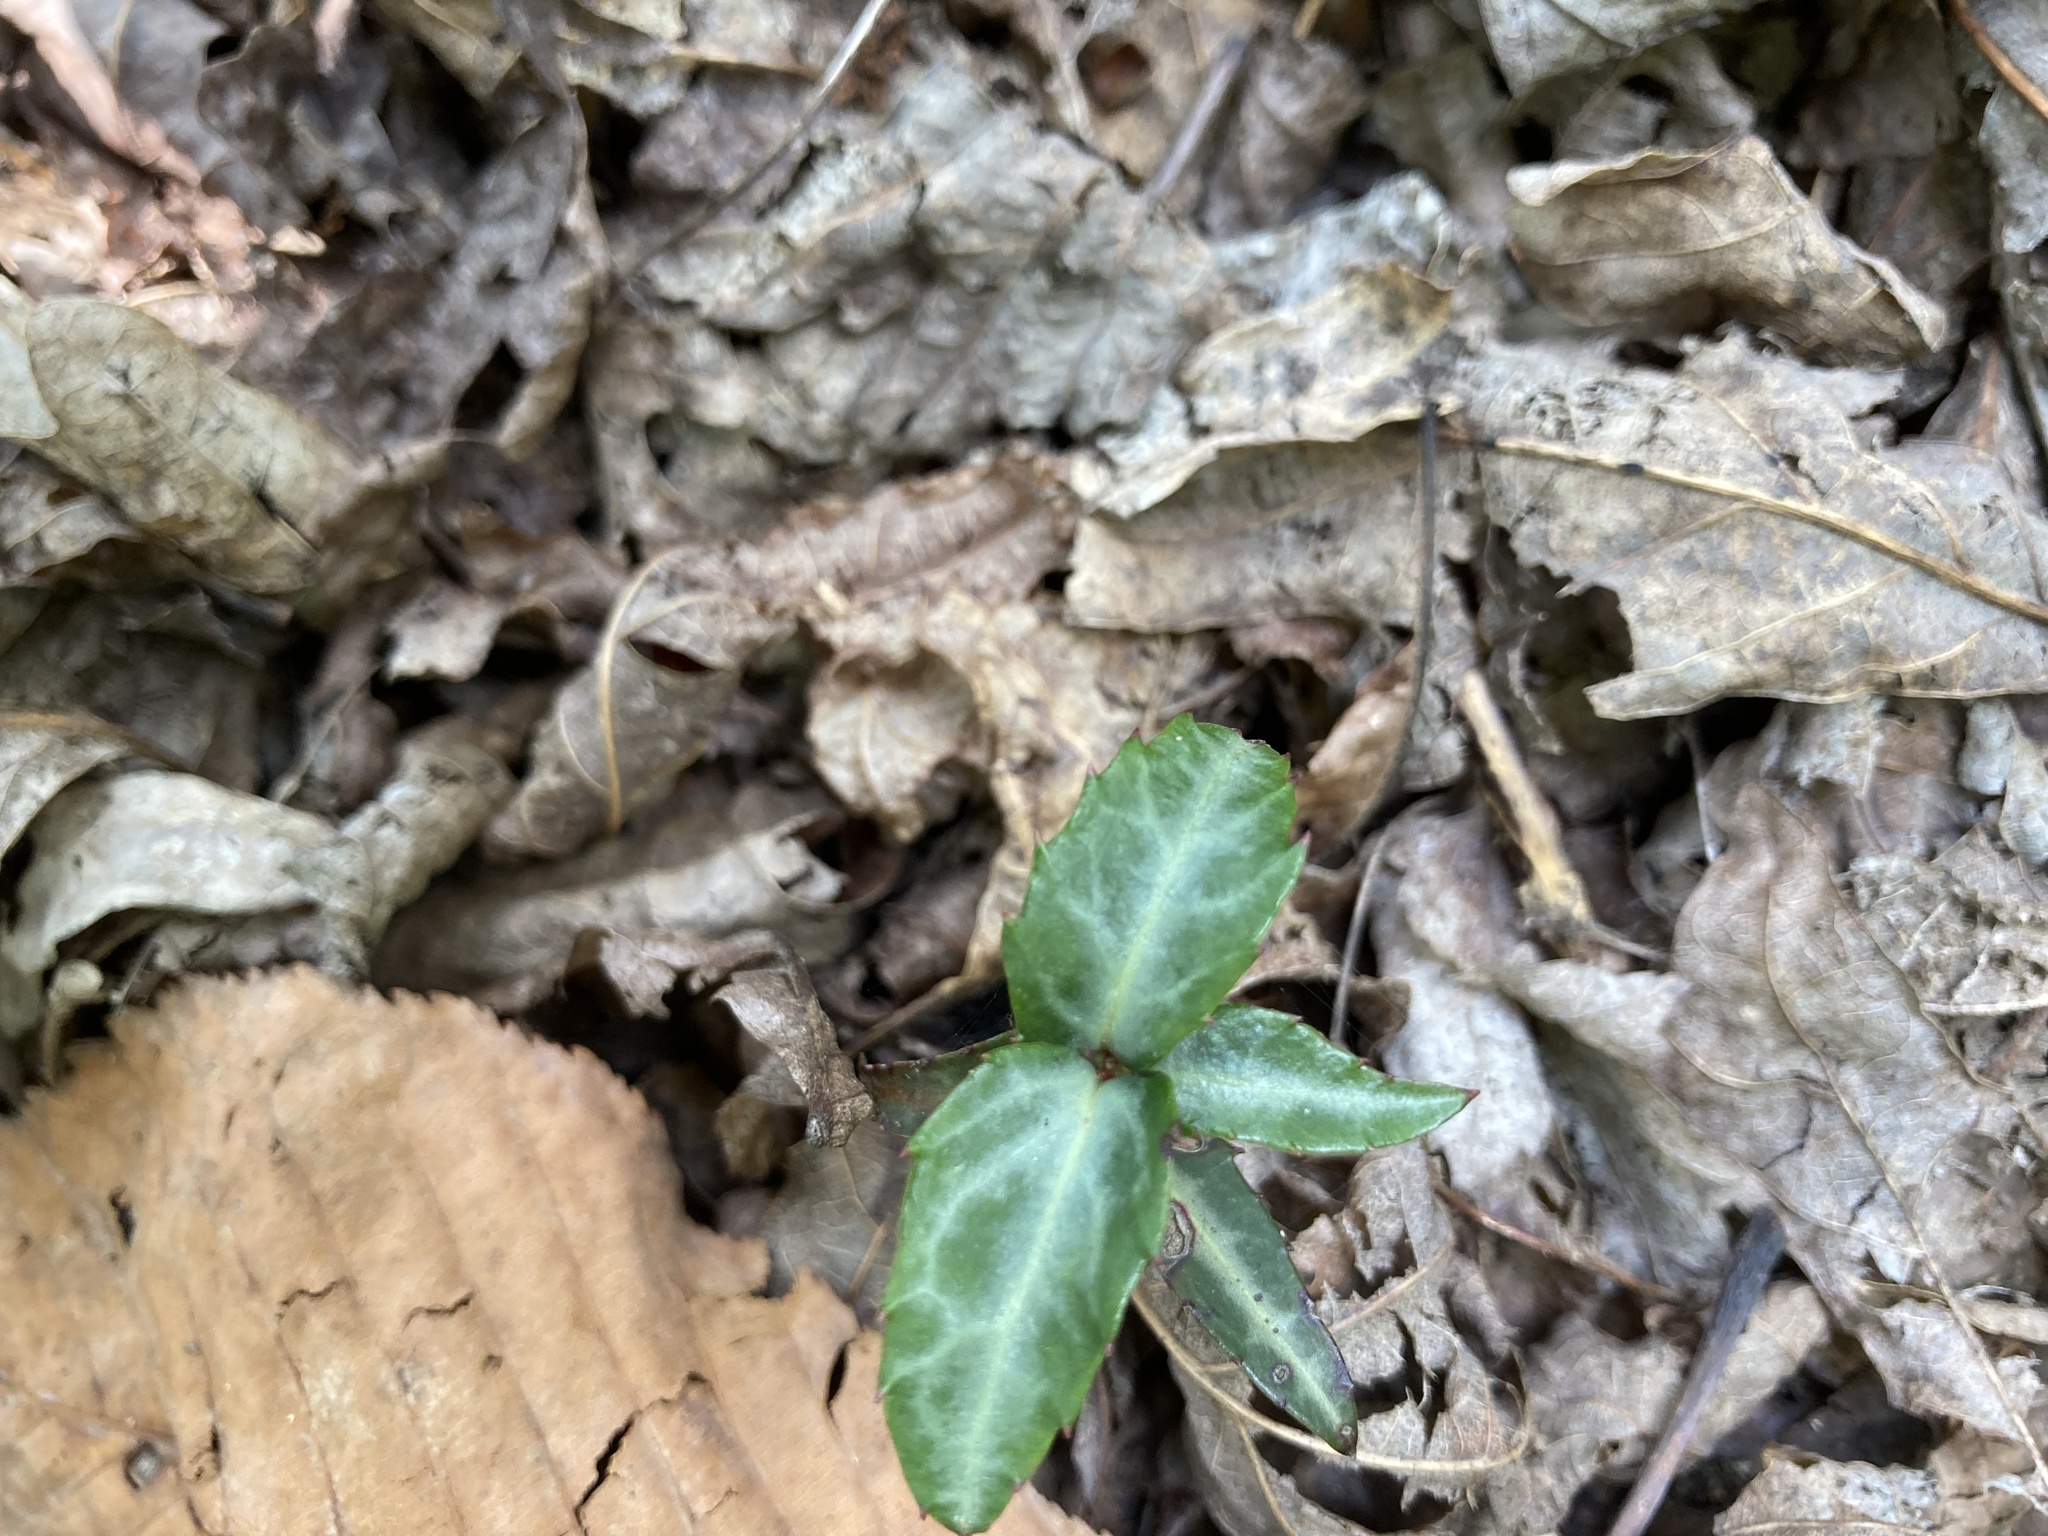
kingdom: Plantae
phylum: Tracheophyta
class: Magnoliopsida
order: Ericales
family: Ericaceae
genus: Chimaphila
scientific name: Chimaphila maculata
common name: Spotted pipsissewa
